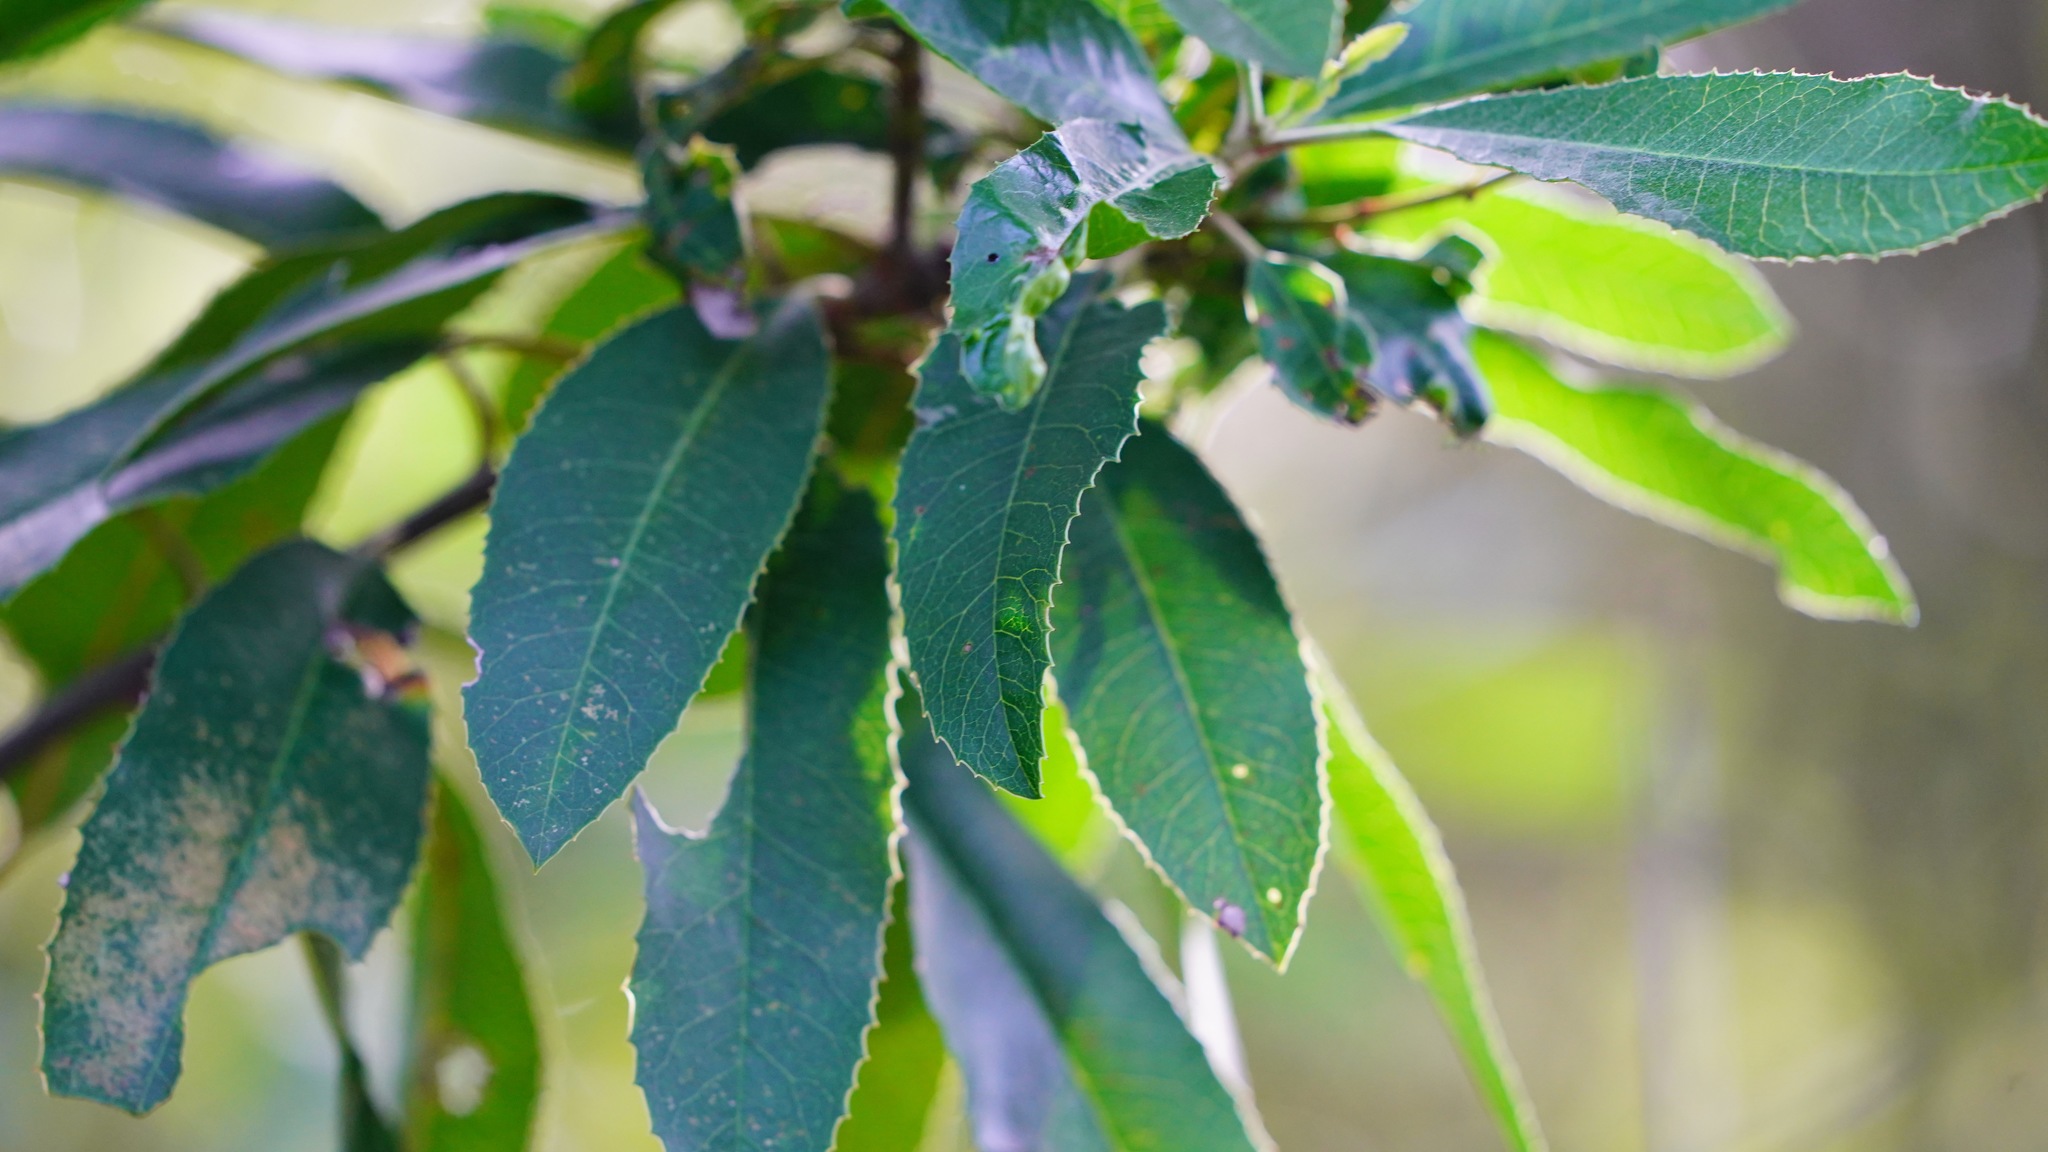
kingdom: Plantae
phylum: Tracheophyta
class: Magnoliopsida
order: Rosales
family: Rosaceae
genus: Heteromeles
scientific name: Heteromeles arbutifolia
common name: California-holly
